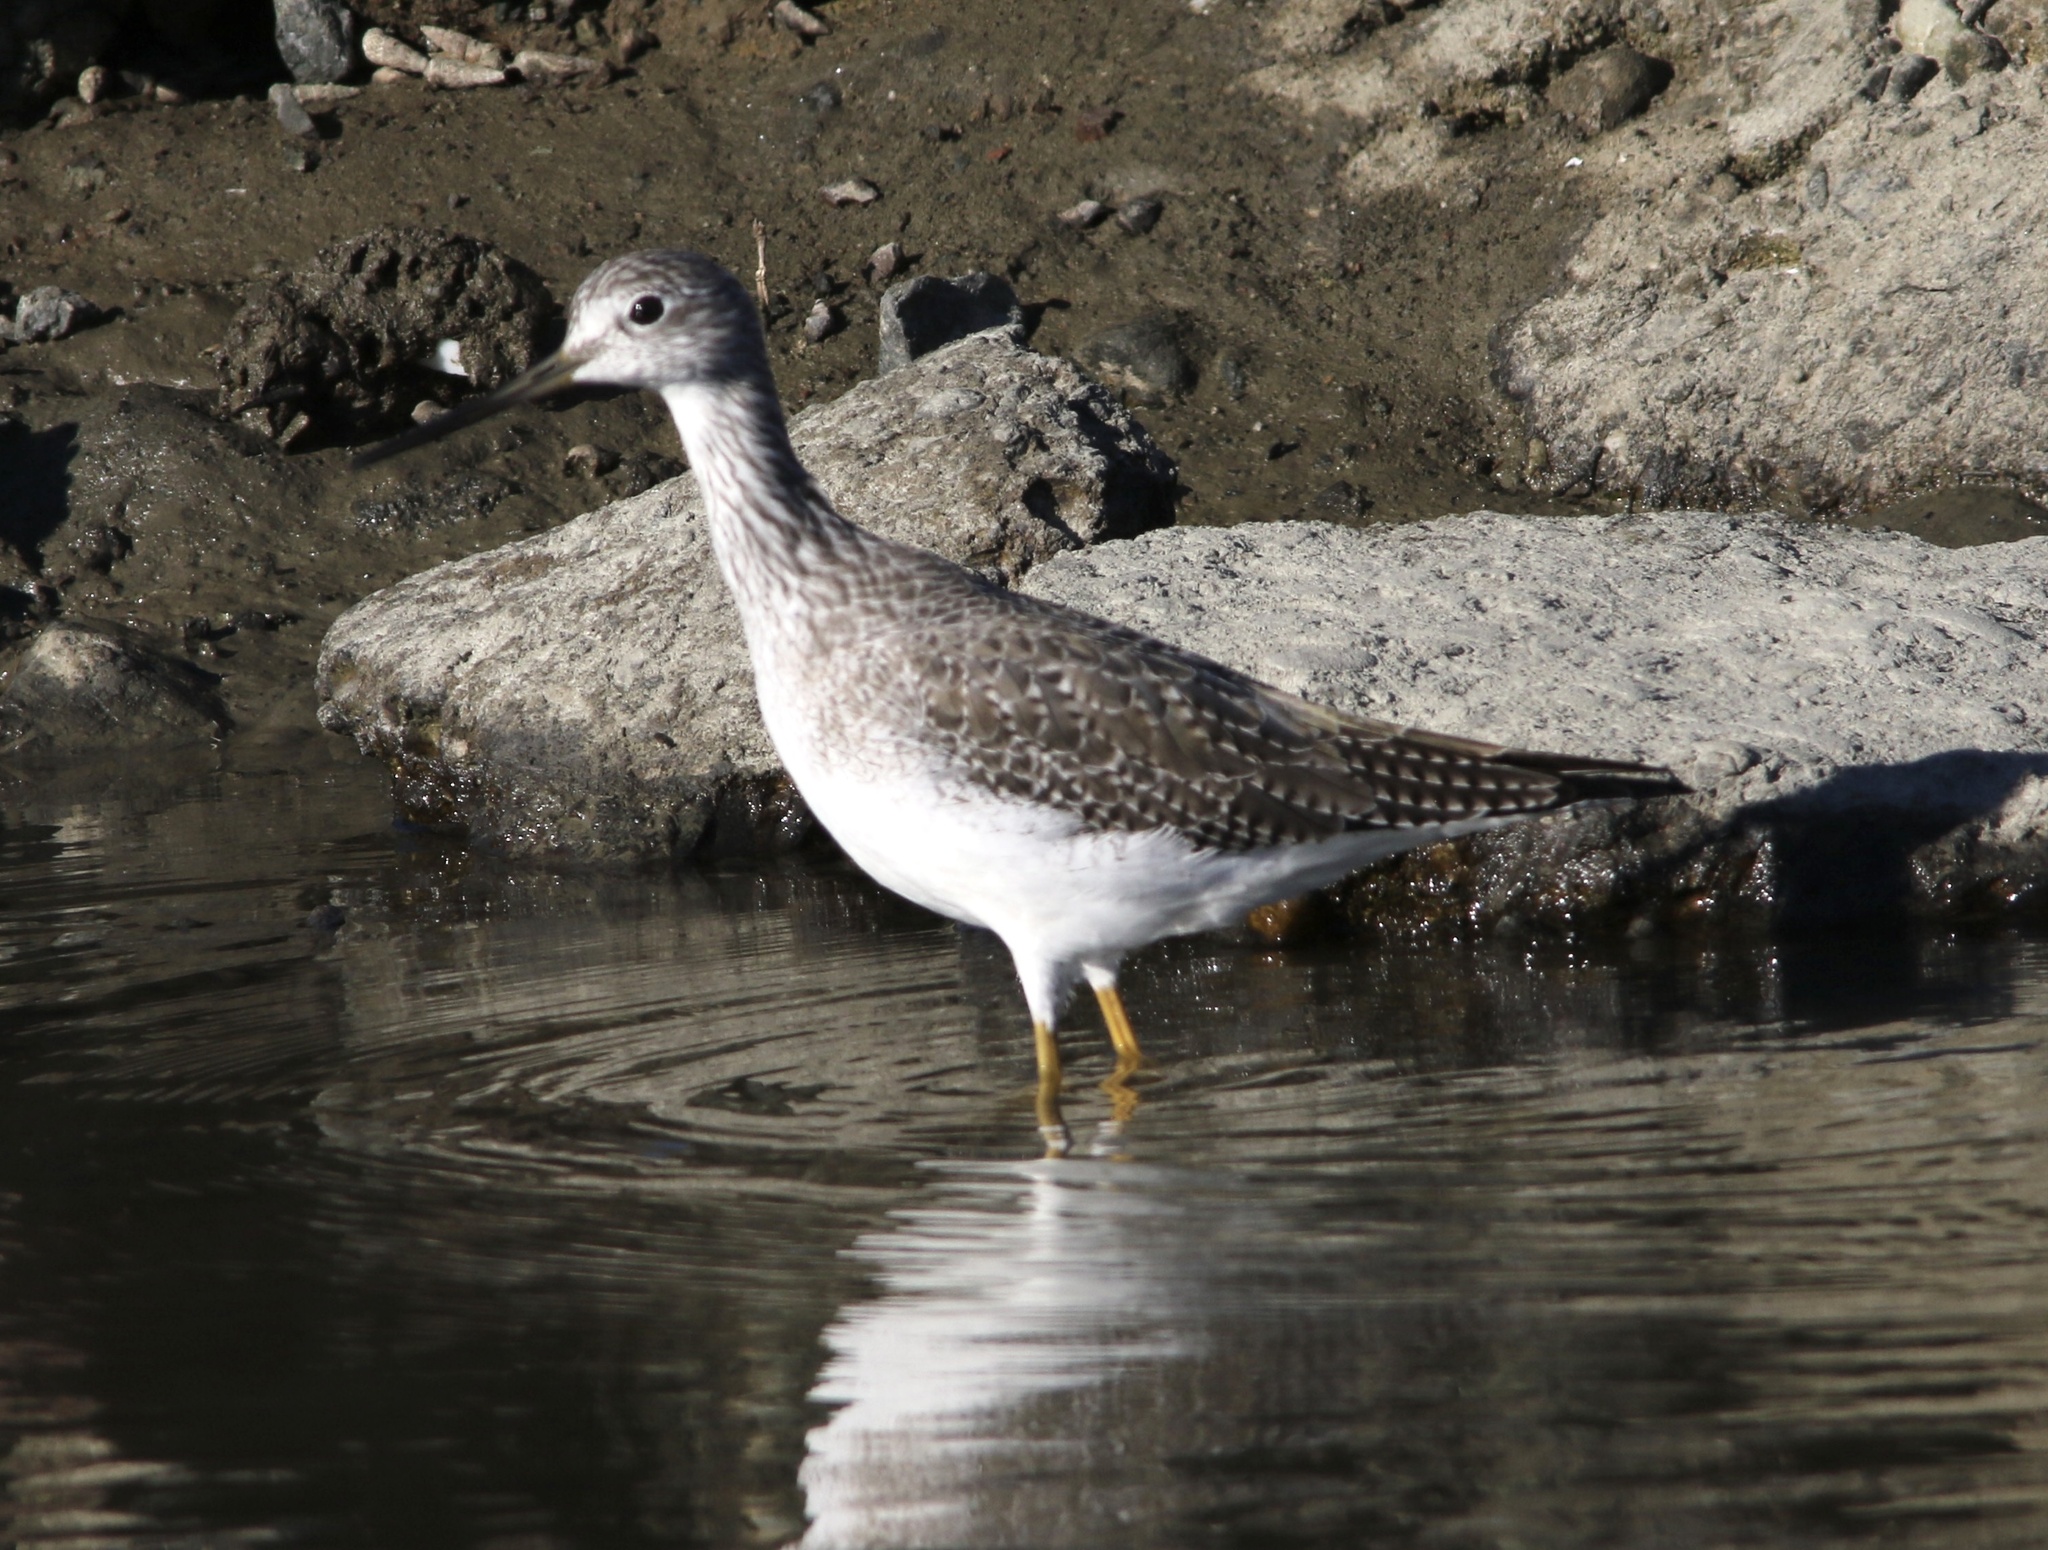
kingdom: Animalia
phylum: Chordata
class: Aves
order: Charadriiformes
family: Scolopacidae
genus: Tringa
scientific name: Tringa melanoleuca
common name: Greater yellowlegs
